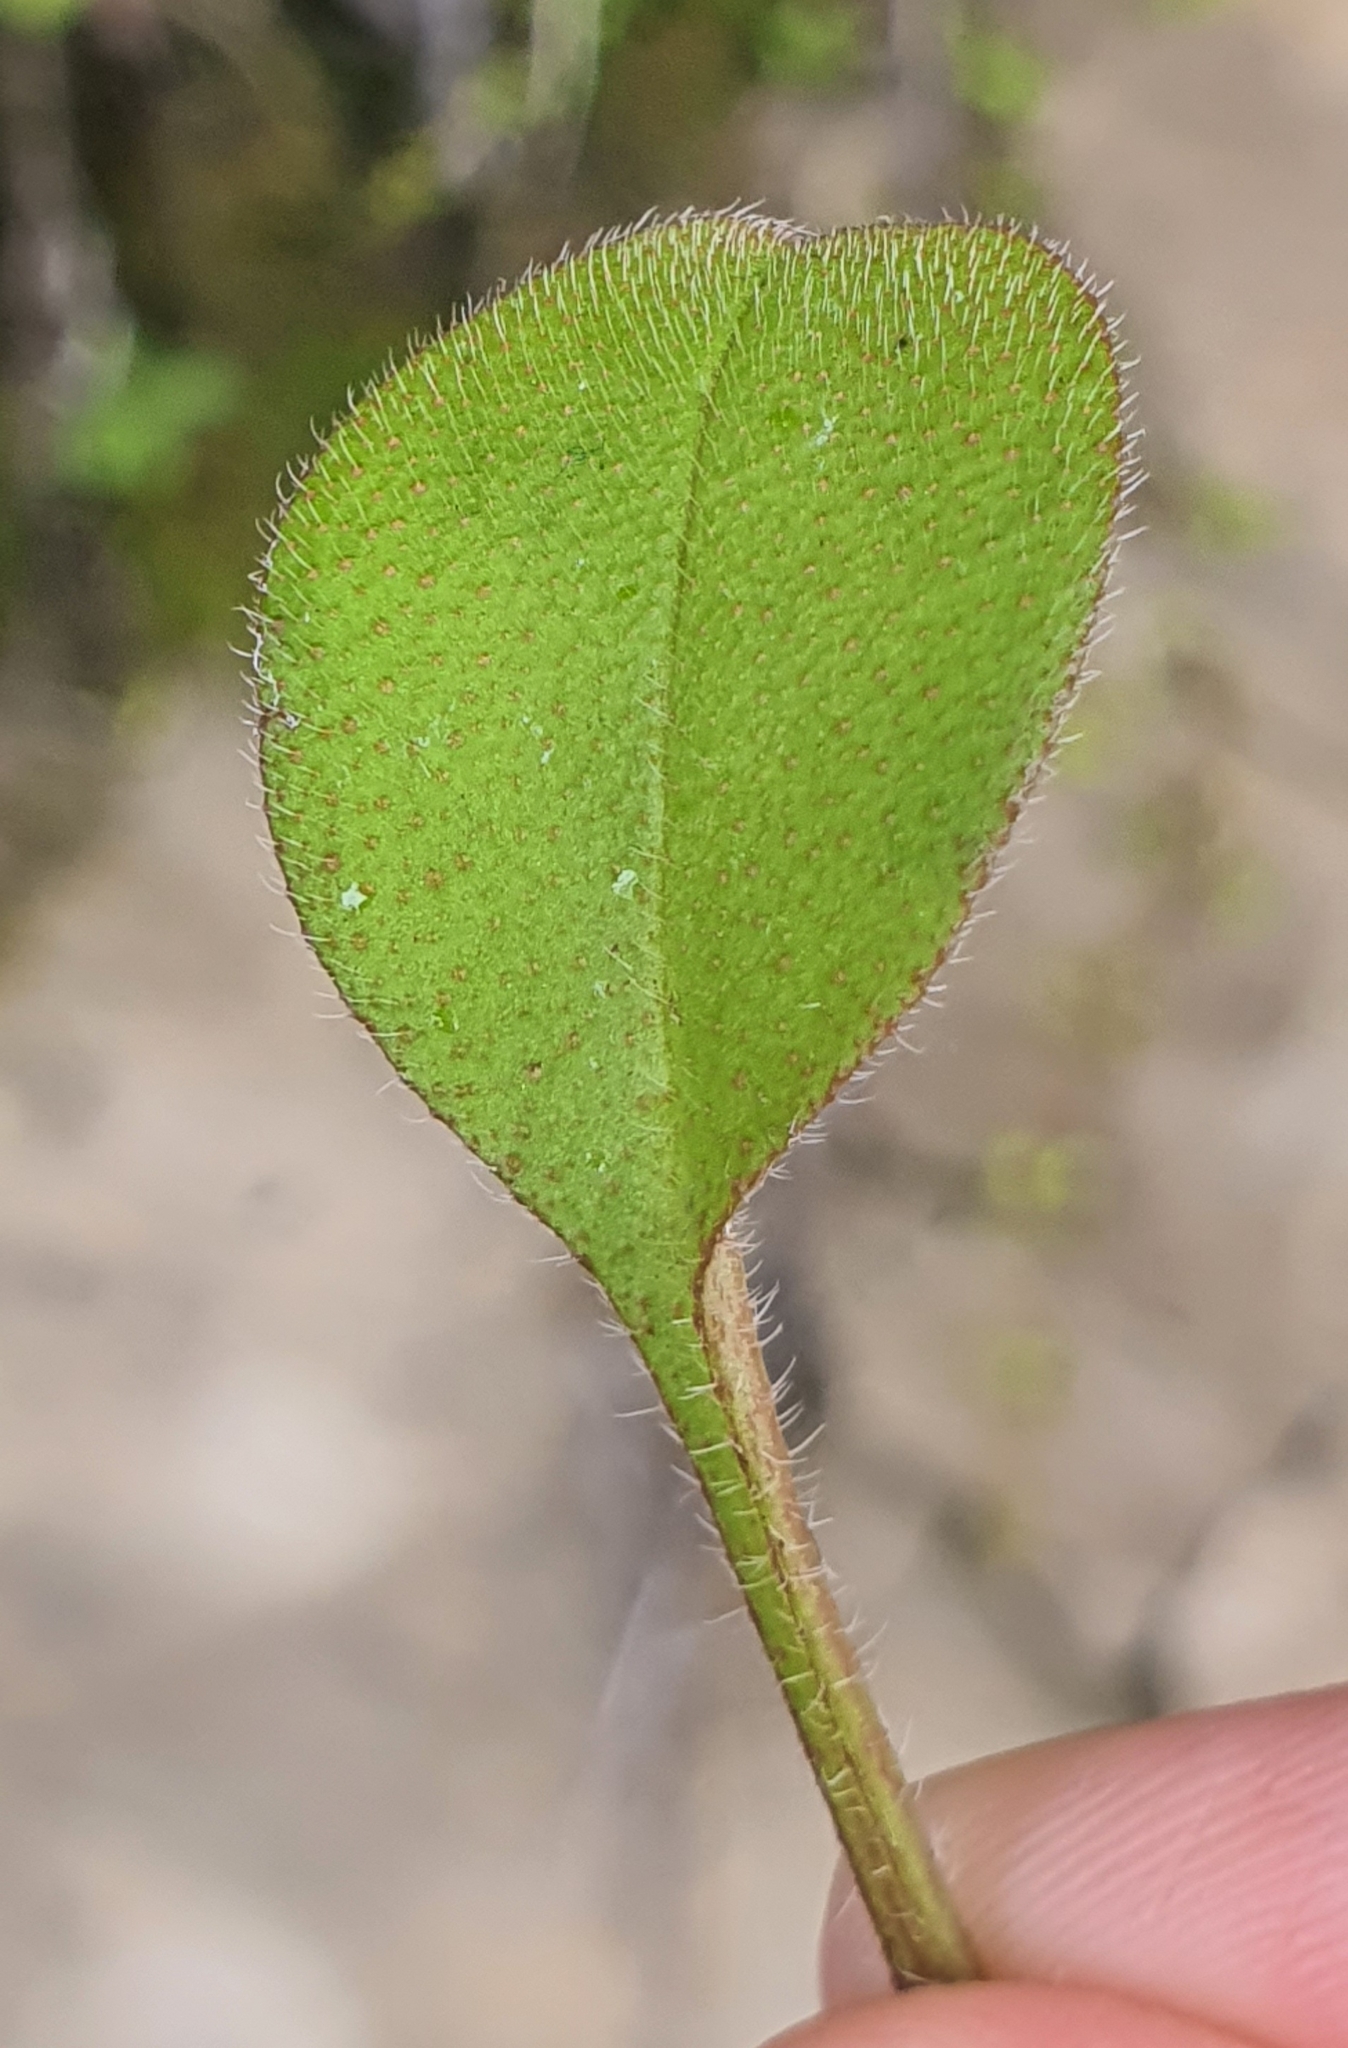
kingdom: Plantae
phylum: Tracheophyta
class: Magnoliopsida
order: Boraginales
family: Boraginaceae
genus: Myosotis
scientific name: Myosotis forsteri
